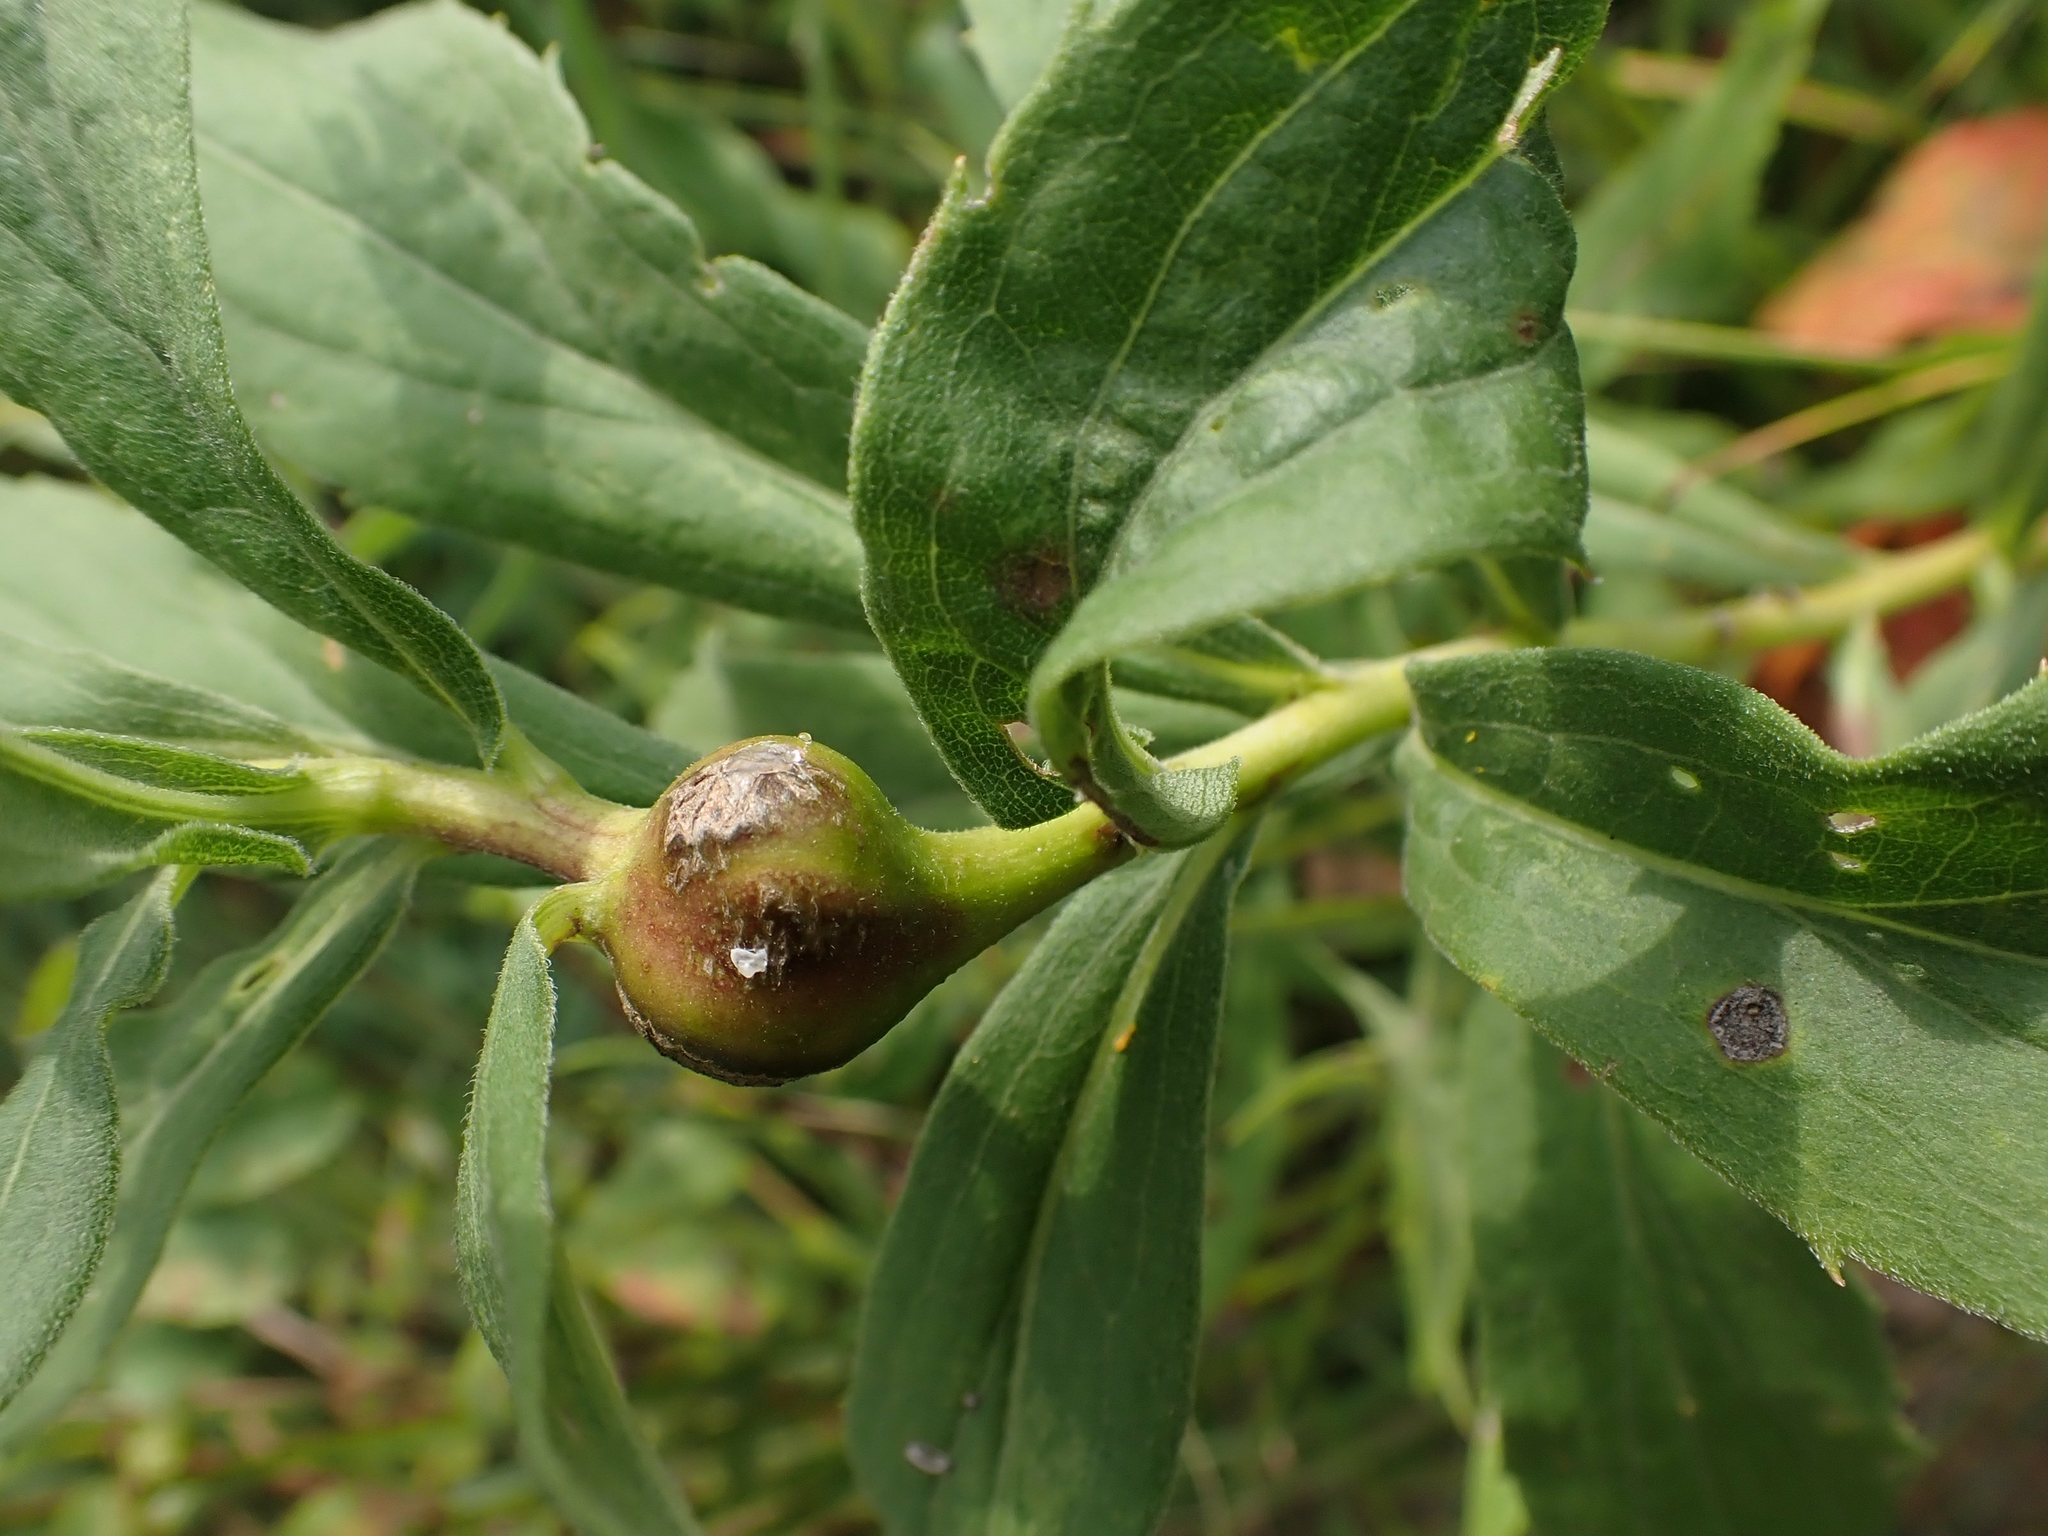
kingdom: Animalia
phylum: Arthropoda
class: Insecta
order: Diptera
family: Tephritidae
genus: Eurosta
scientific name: Eurosta solidaginis
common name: Goldenrod gall fly
